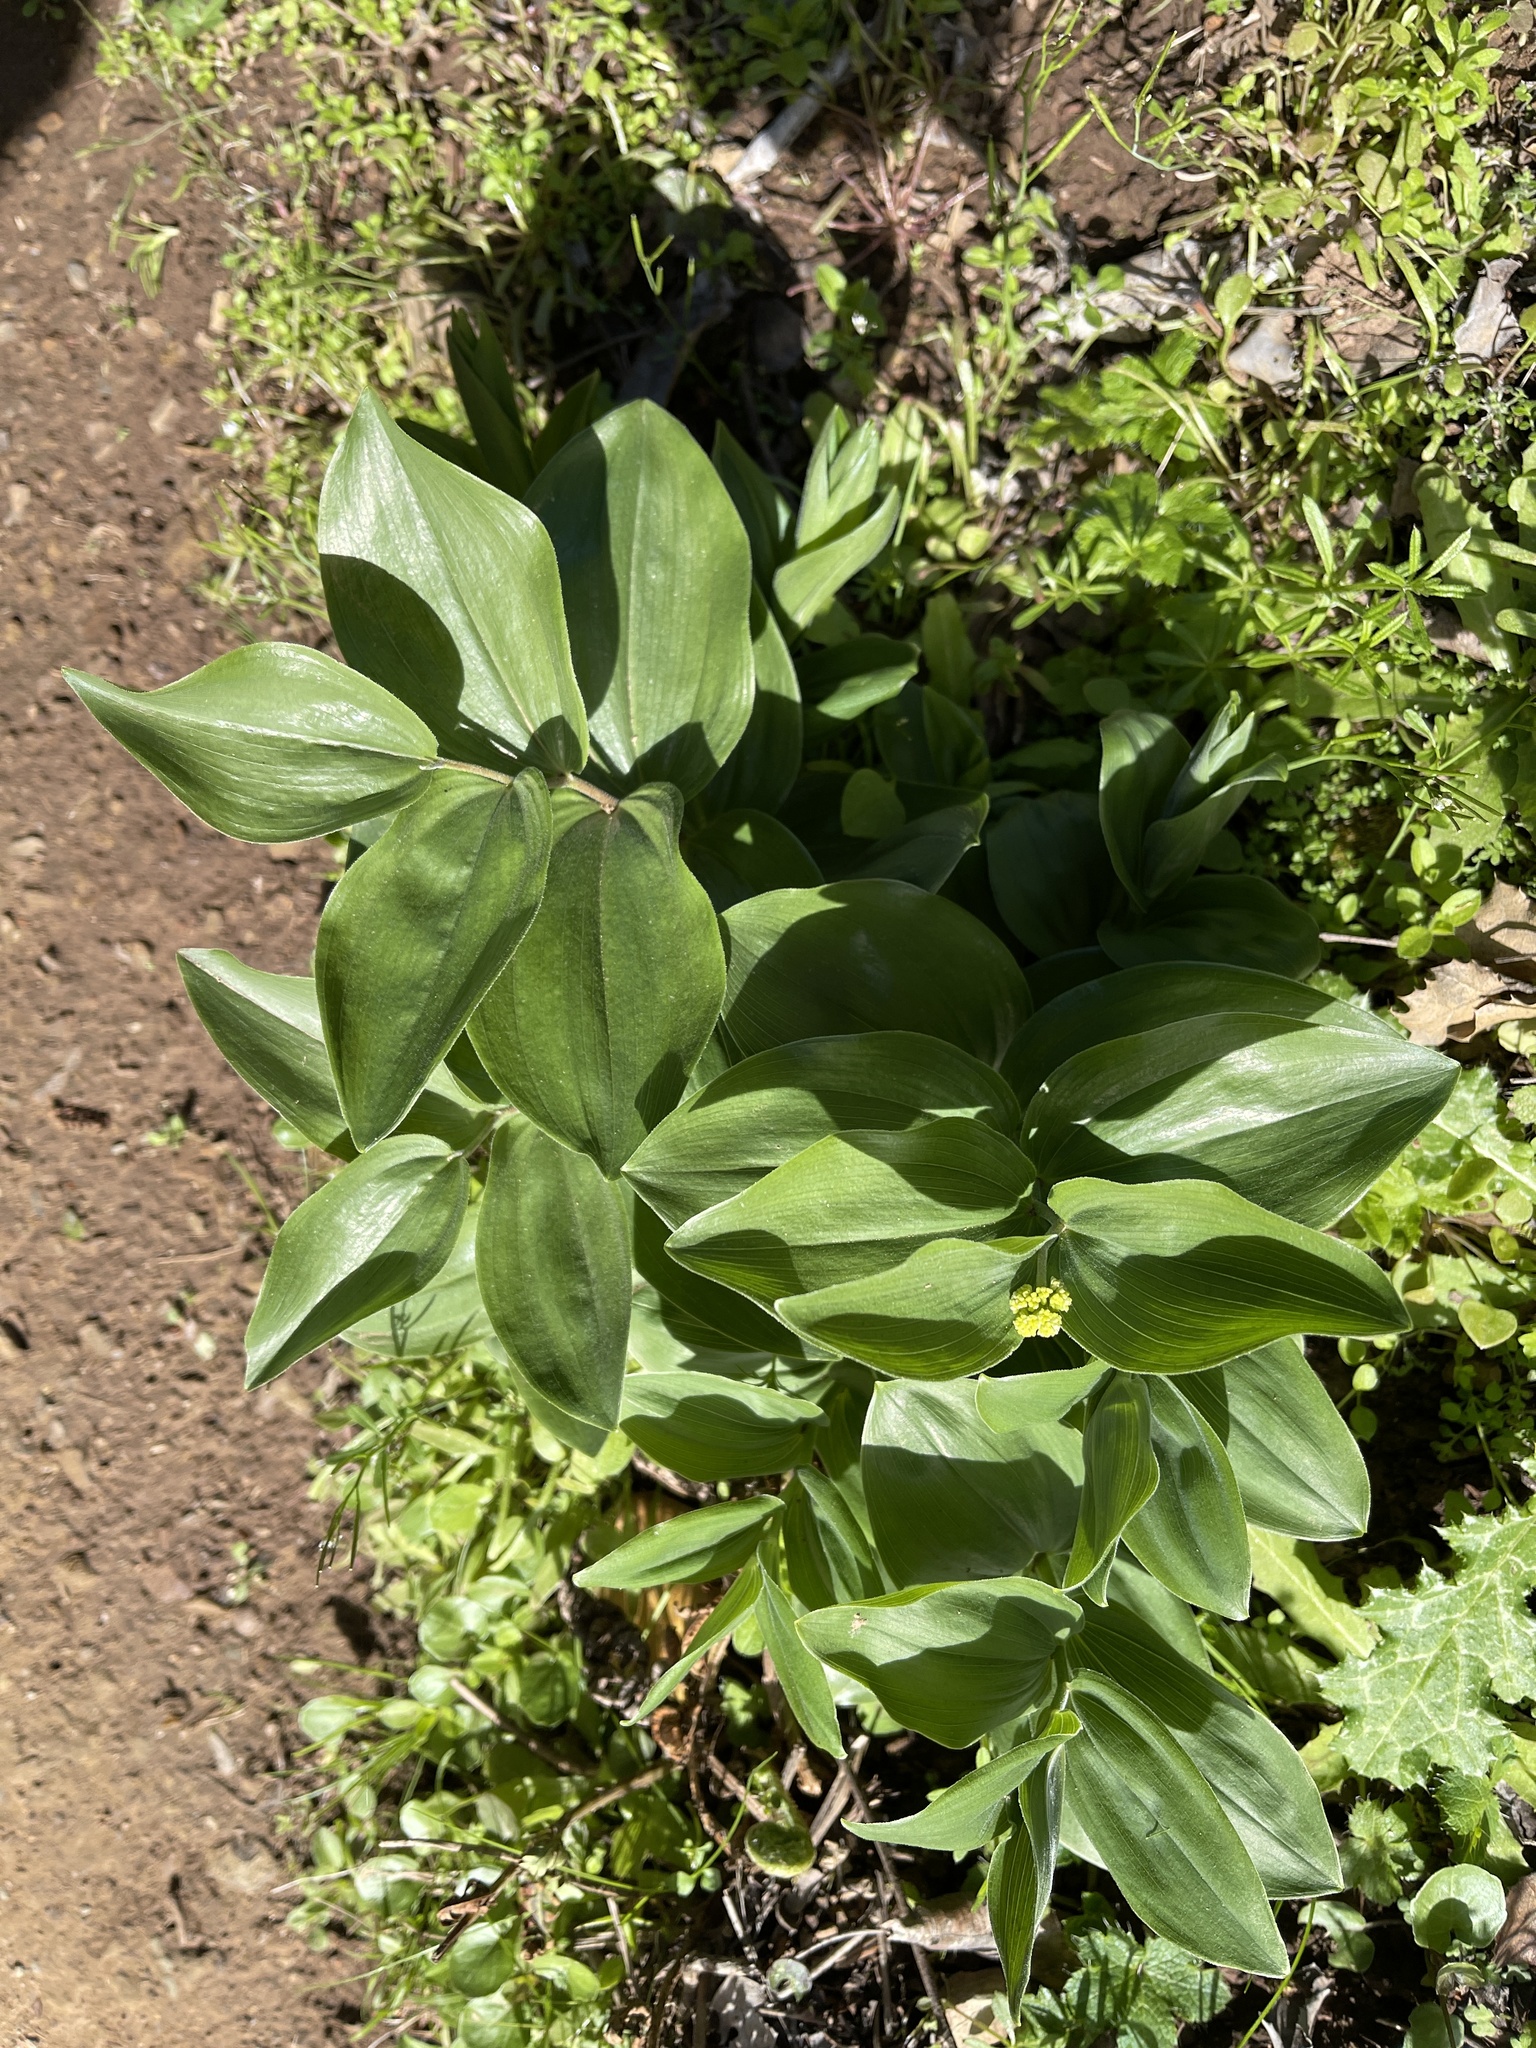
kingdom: Plantae
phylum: Tracheophyta
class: Liliopsida
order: Asparagales
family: Asparagaceae
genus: Maianthemum
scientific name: Maianthemum racemosum
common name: False spikenard
